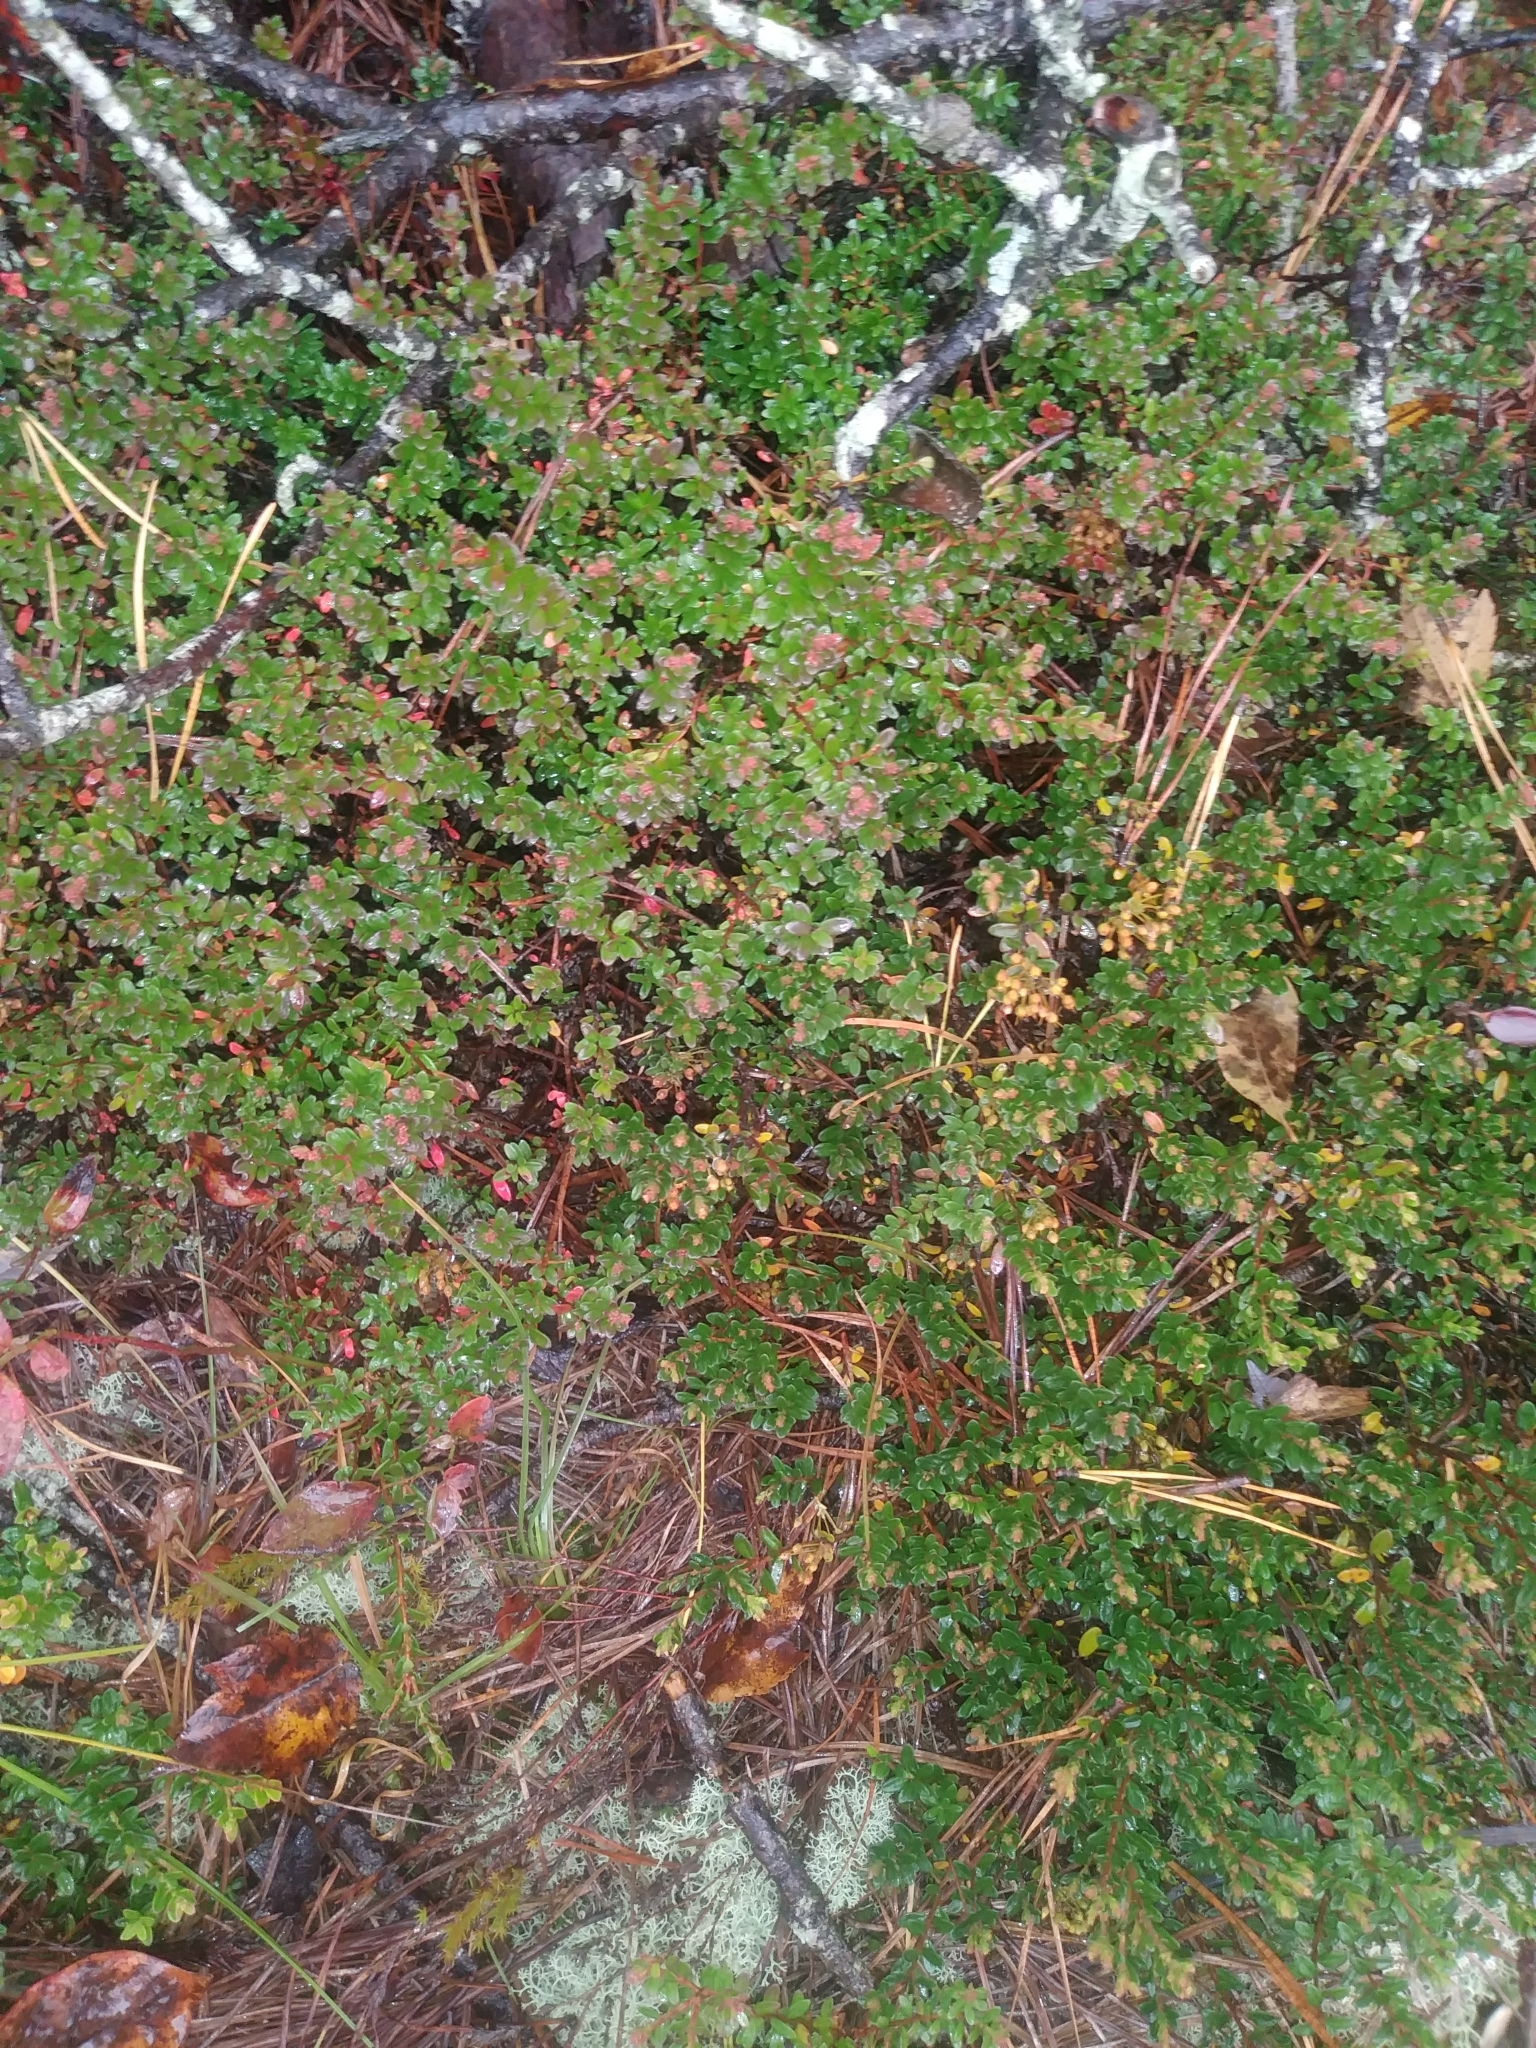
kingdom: Plantae
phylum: Tracheophyta
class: Magnoliopsida
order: Ericales
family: Ericaceae
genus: Kalmia
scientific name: Kalmia buxifolia
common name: Sandmyrtle
